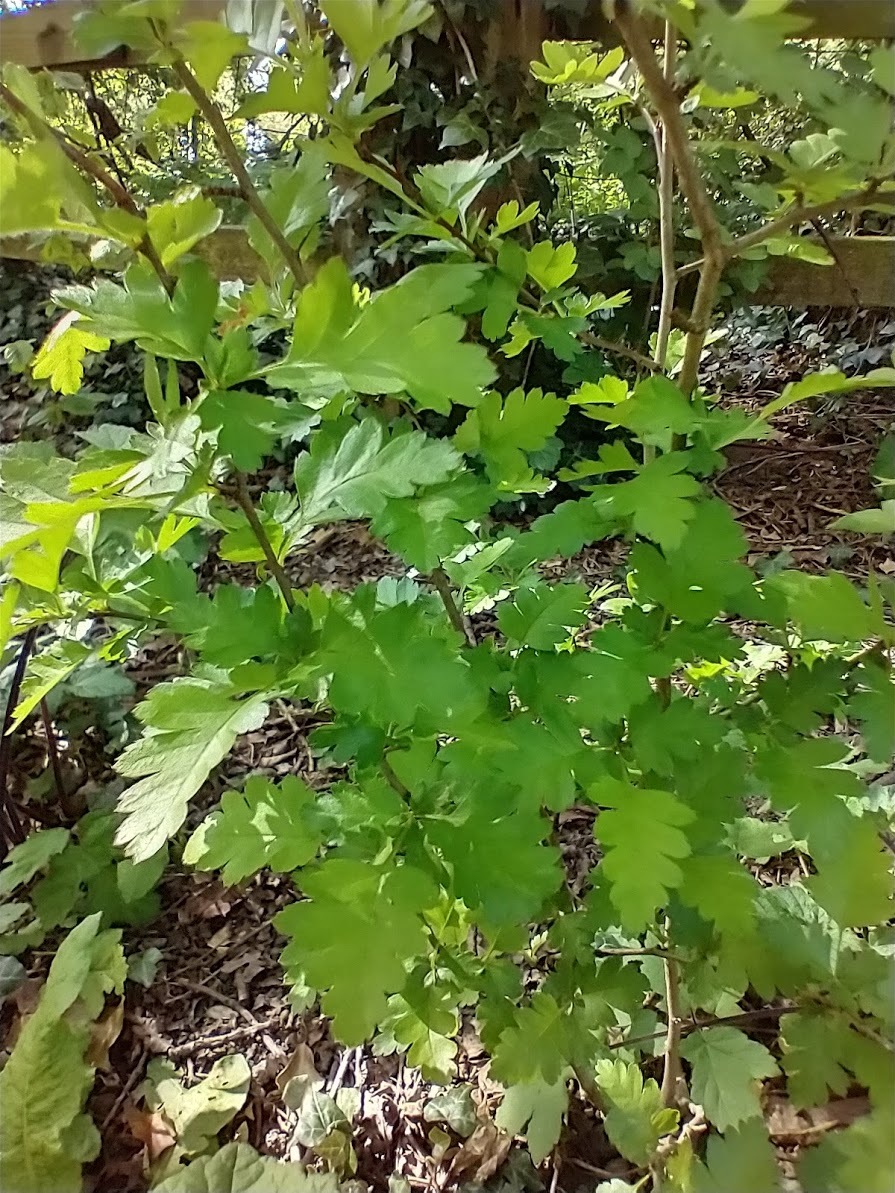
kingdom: Plantae
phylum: Tracheophyta
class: Magnoliopsida
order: Rosales
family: Rosaceae
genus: Crataegus
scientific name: Crataegus monogyna
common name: Hawthorn
